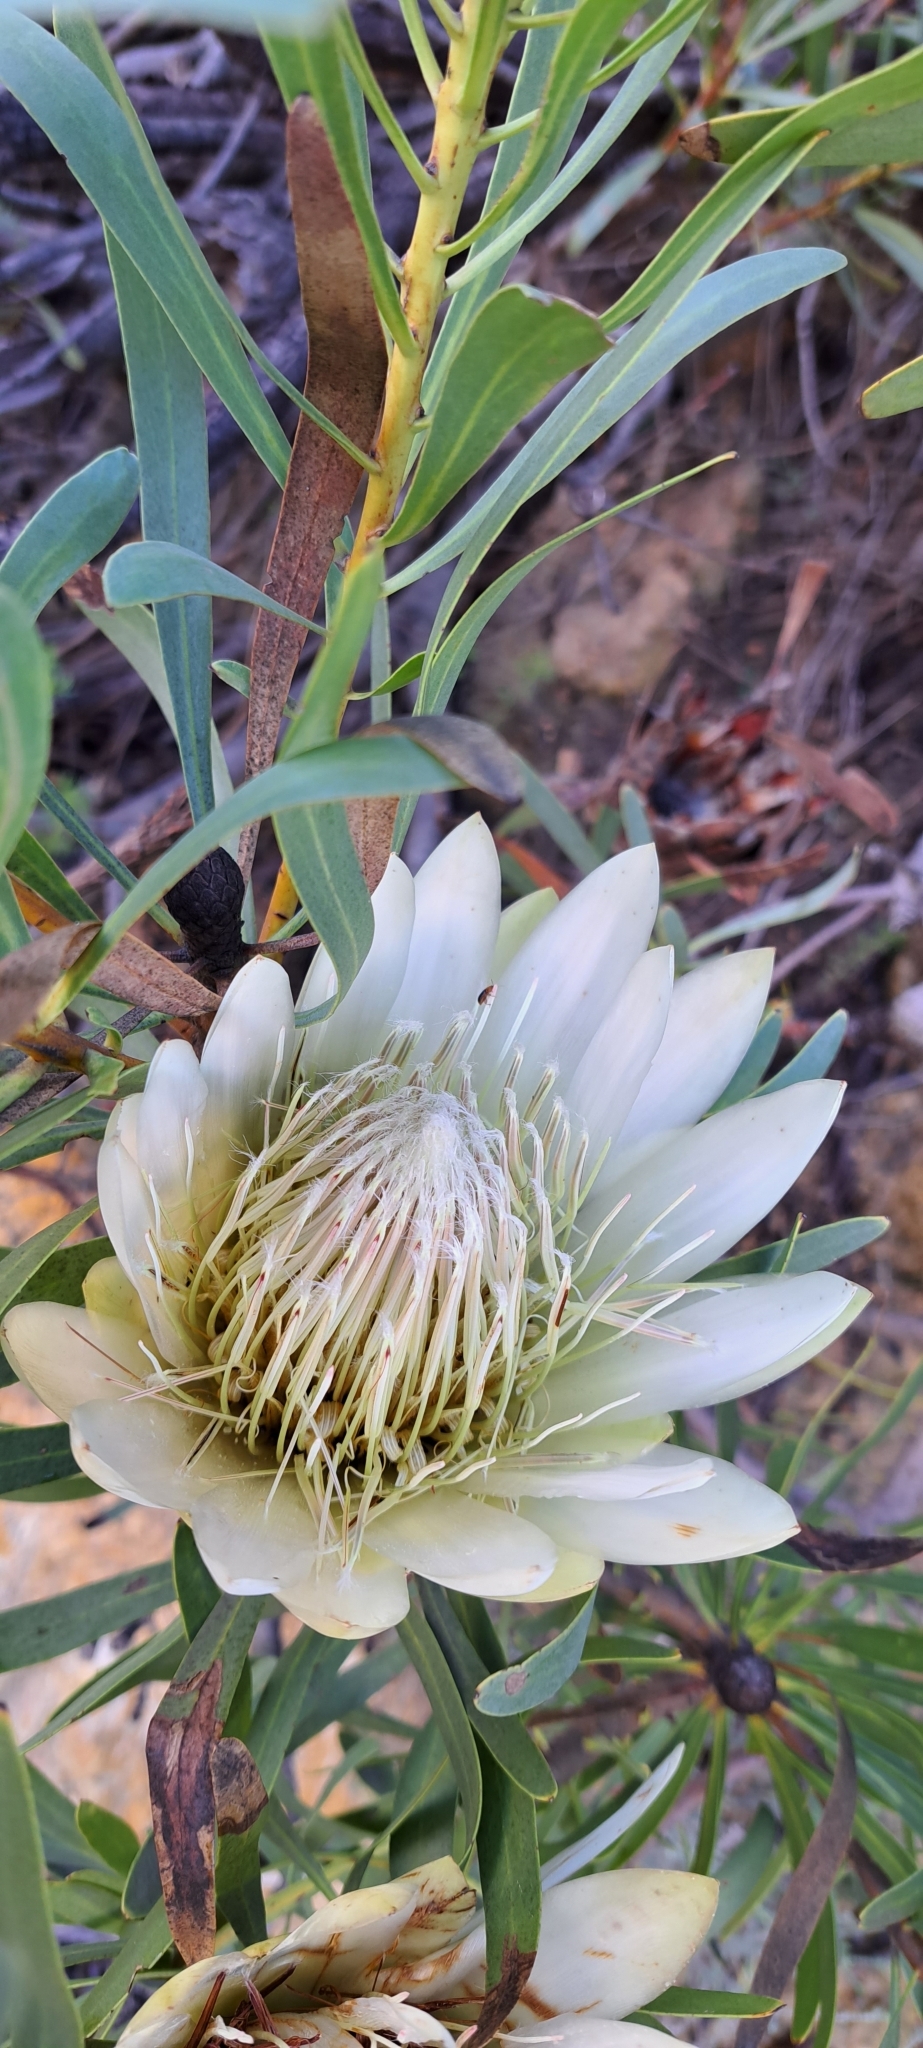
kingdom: Plantae
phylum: Tracheophyta
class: Magnoliopsida
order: Proteales
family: Proteaceae
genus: Protea
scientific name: Protea repens
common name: Sugarbush
